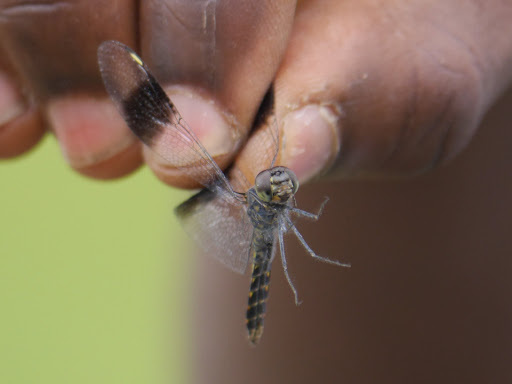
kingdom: Animalia
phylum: Arthropoda
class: Insecta
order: Odonata
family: Libellulidae
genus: Brachythemis
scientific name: Brachythemis leucosticta
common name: Banded groundling
